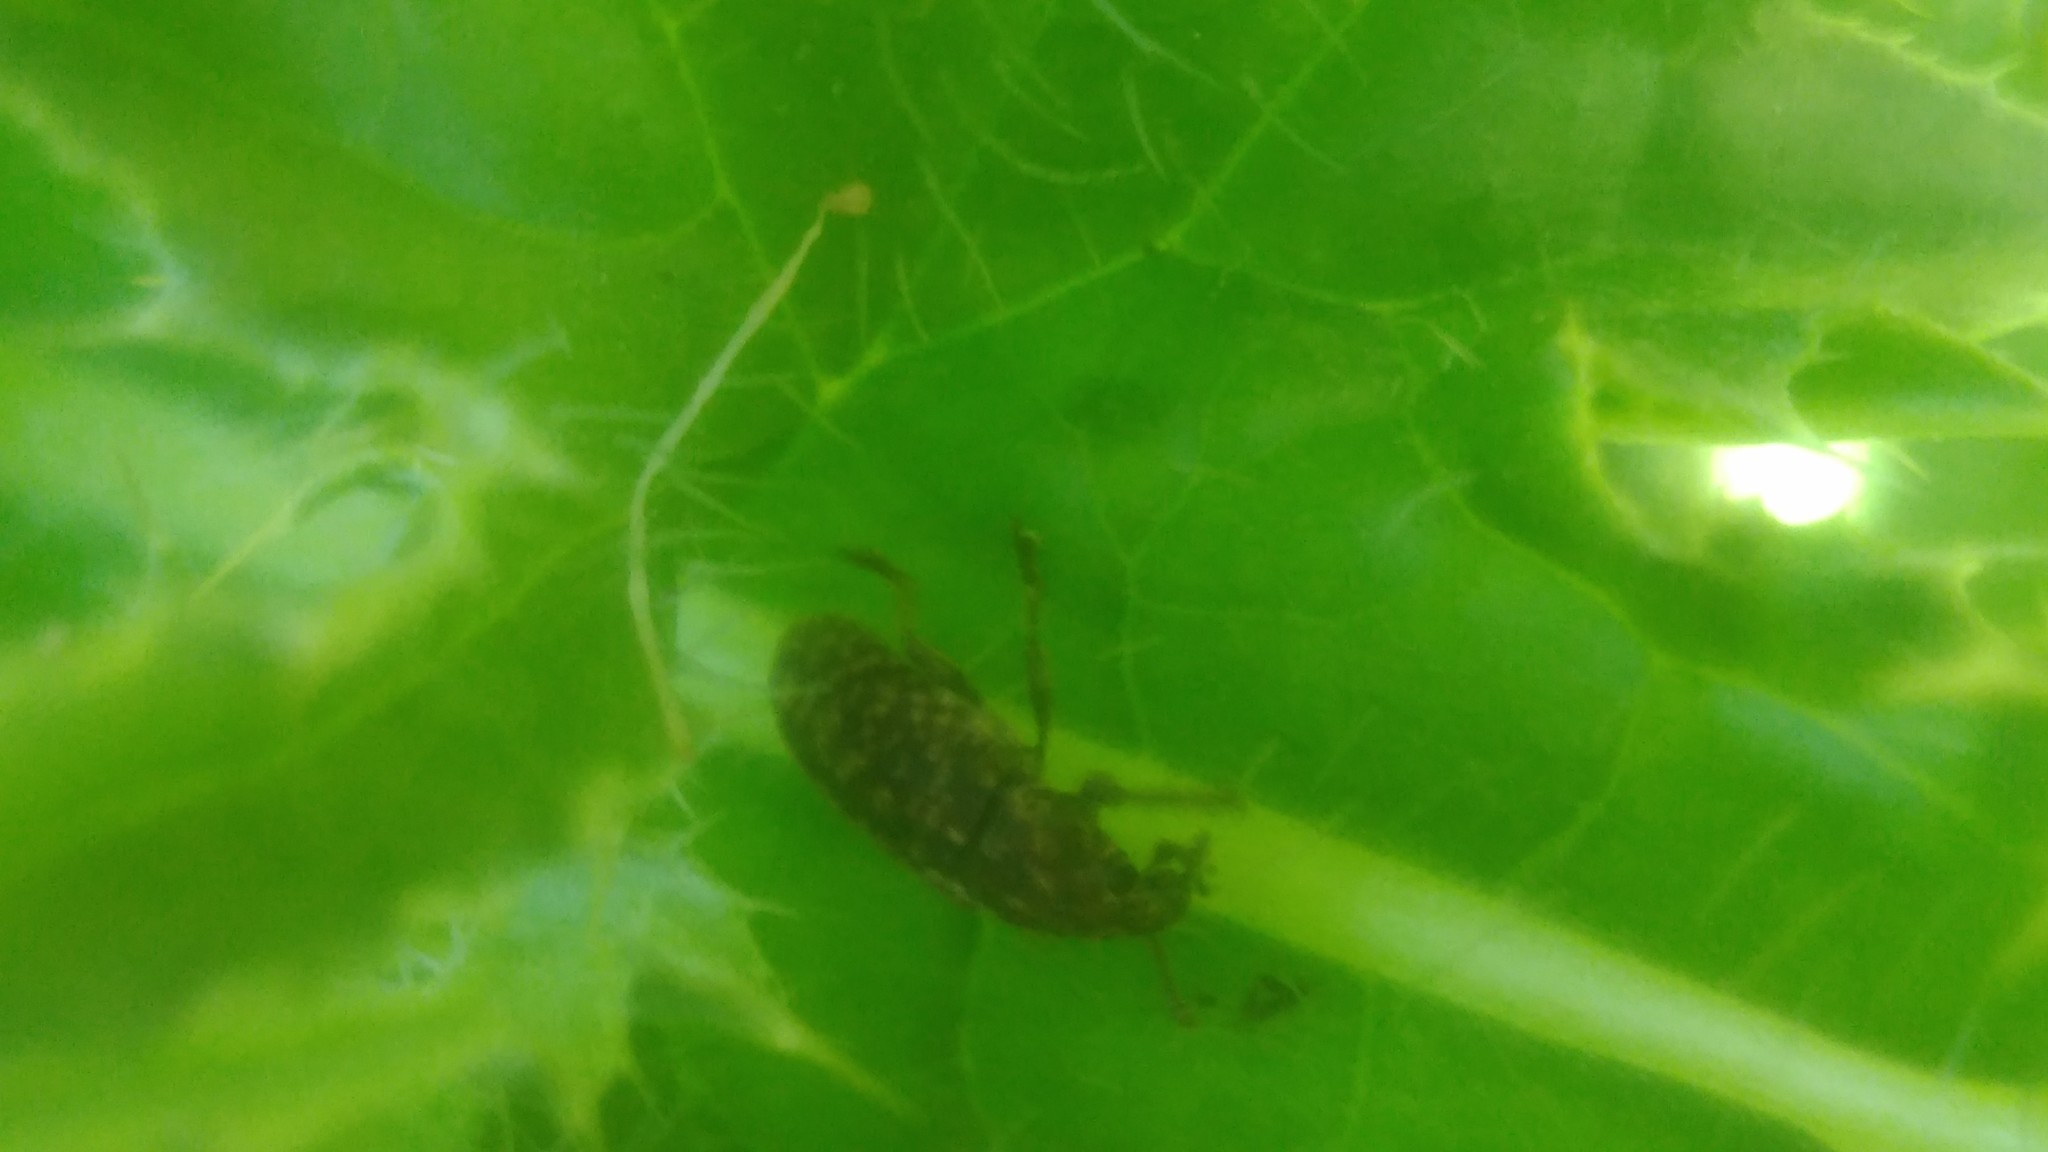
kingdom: Animalia
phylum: Arthropoda
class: Insecta
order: Coleoptera
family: Curculionidae
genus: Rhinocyllus
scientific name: Rhinocyllus conicus
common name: Weevil
